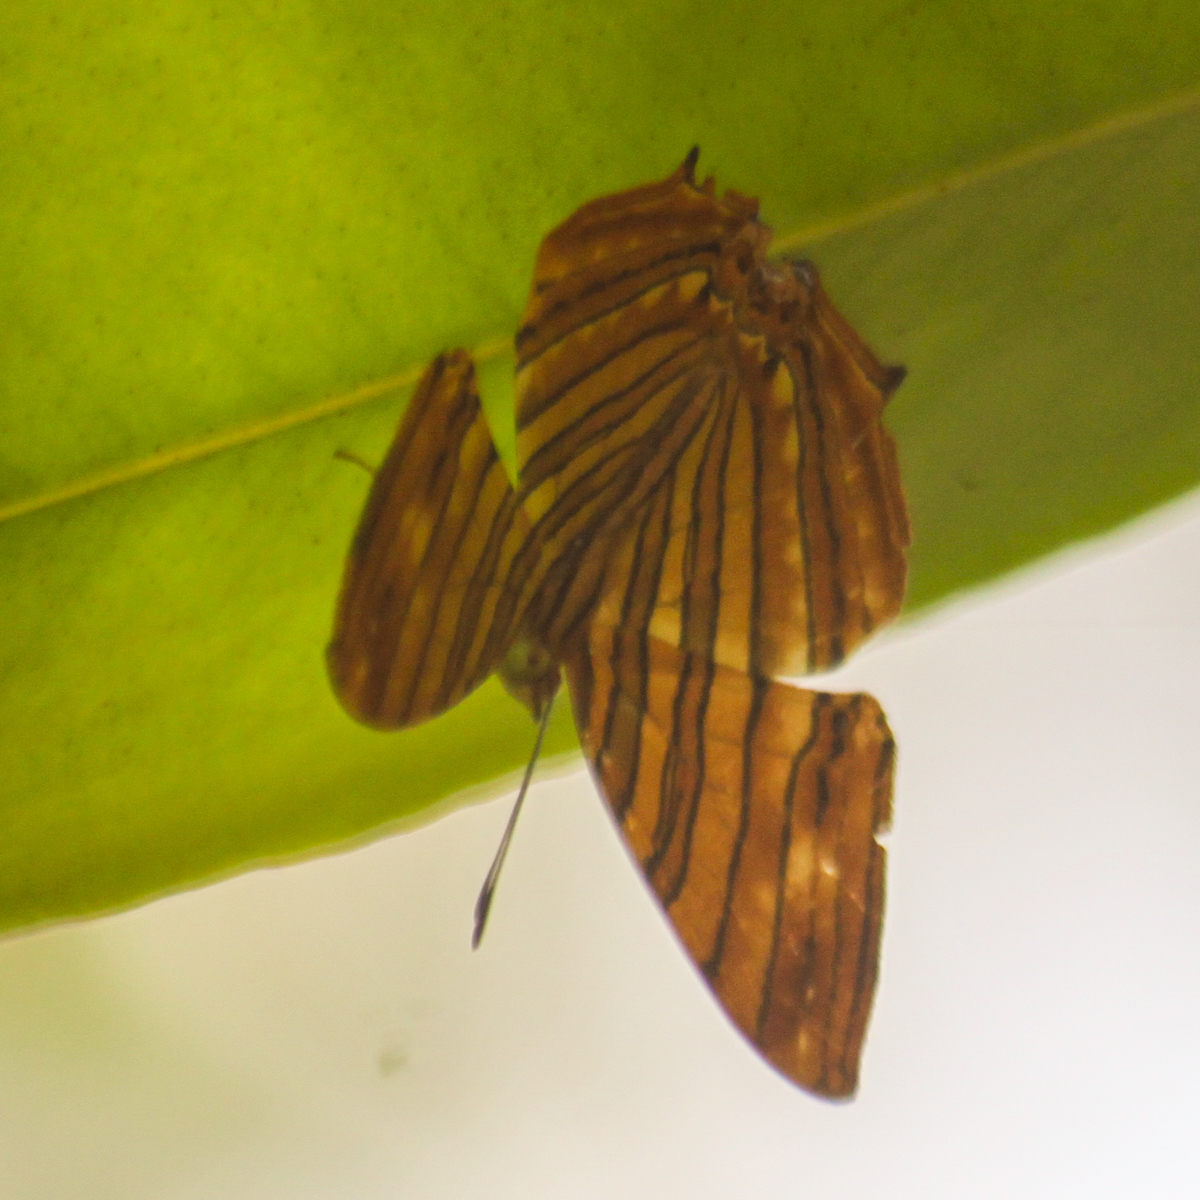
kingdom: Animalia
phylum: Arthropoda
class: Insecta
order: Lepidoptera
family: Nymphalidae
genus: Chersonesia
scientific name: Chersonesia risa
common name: Common maplet
